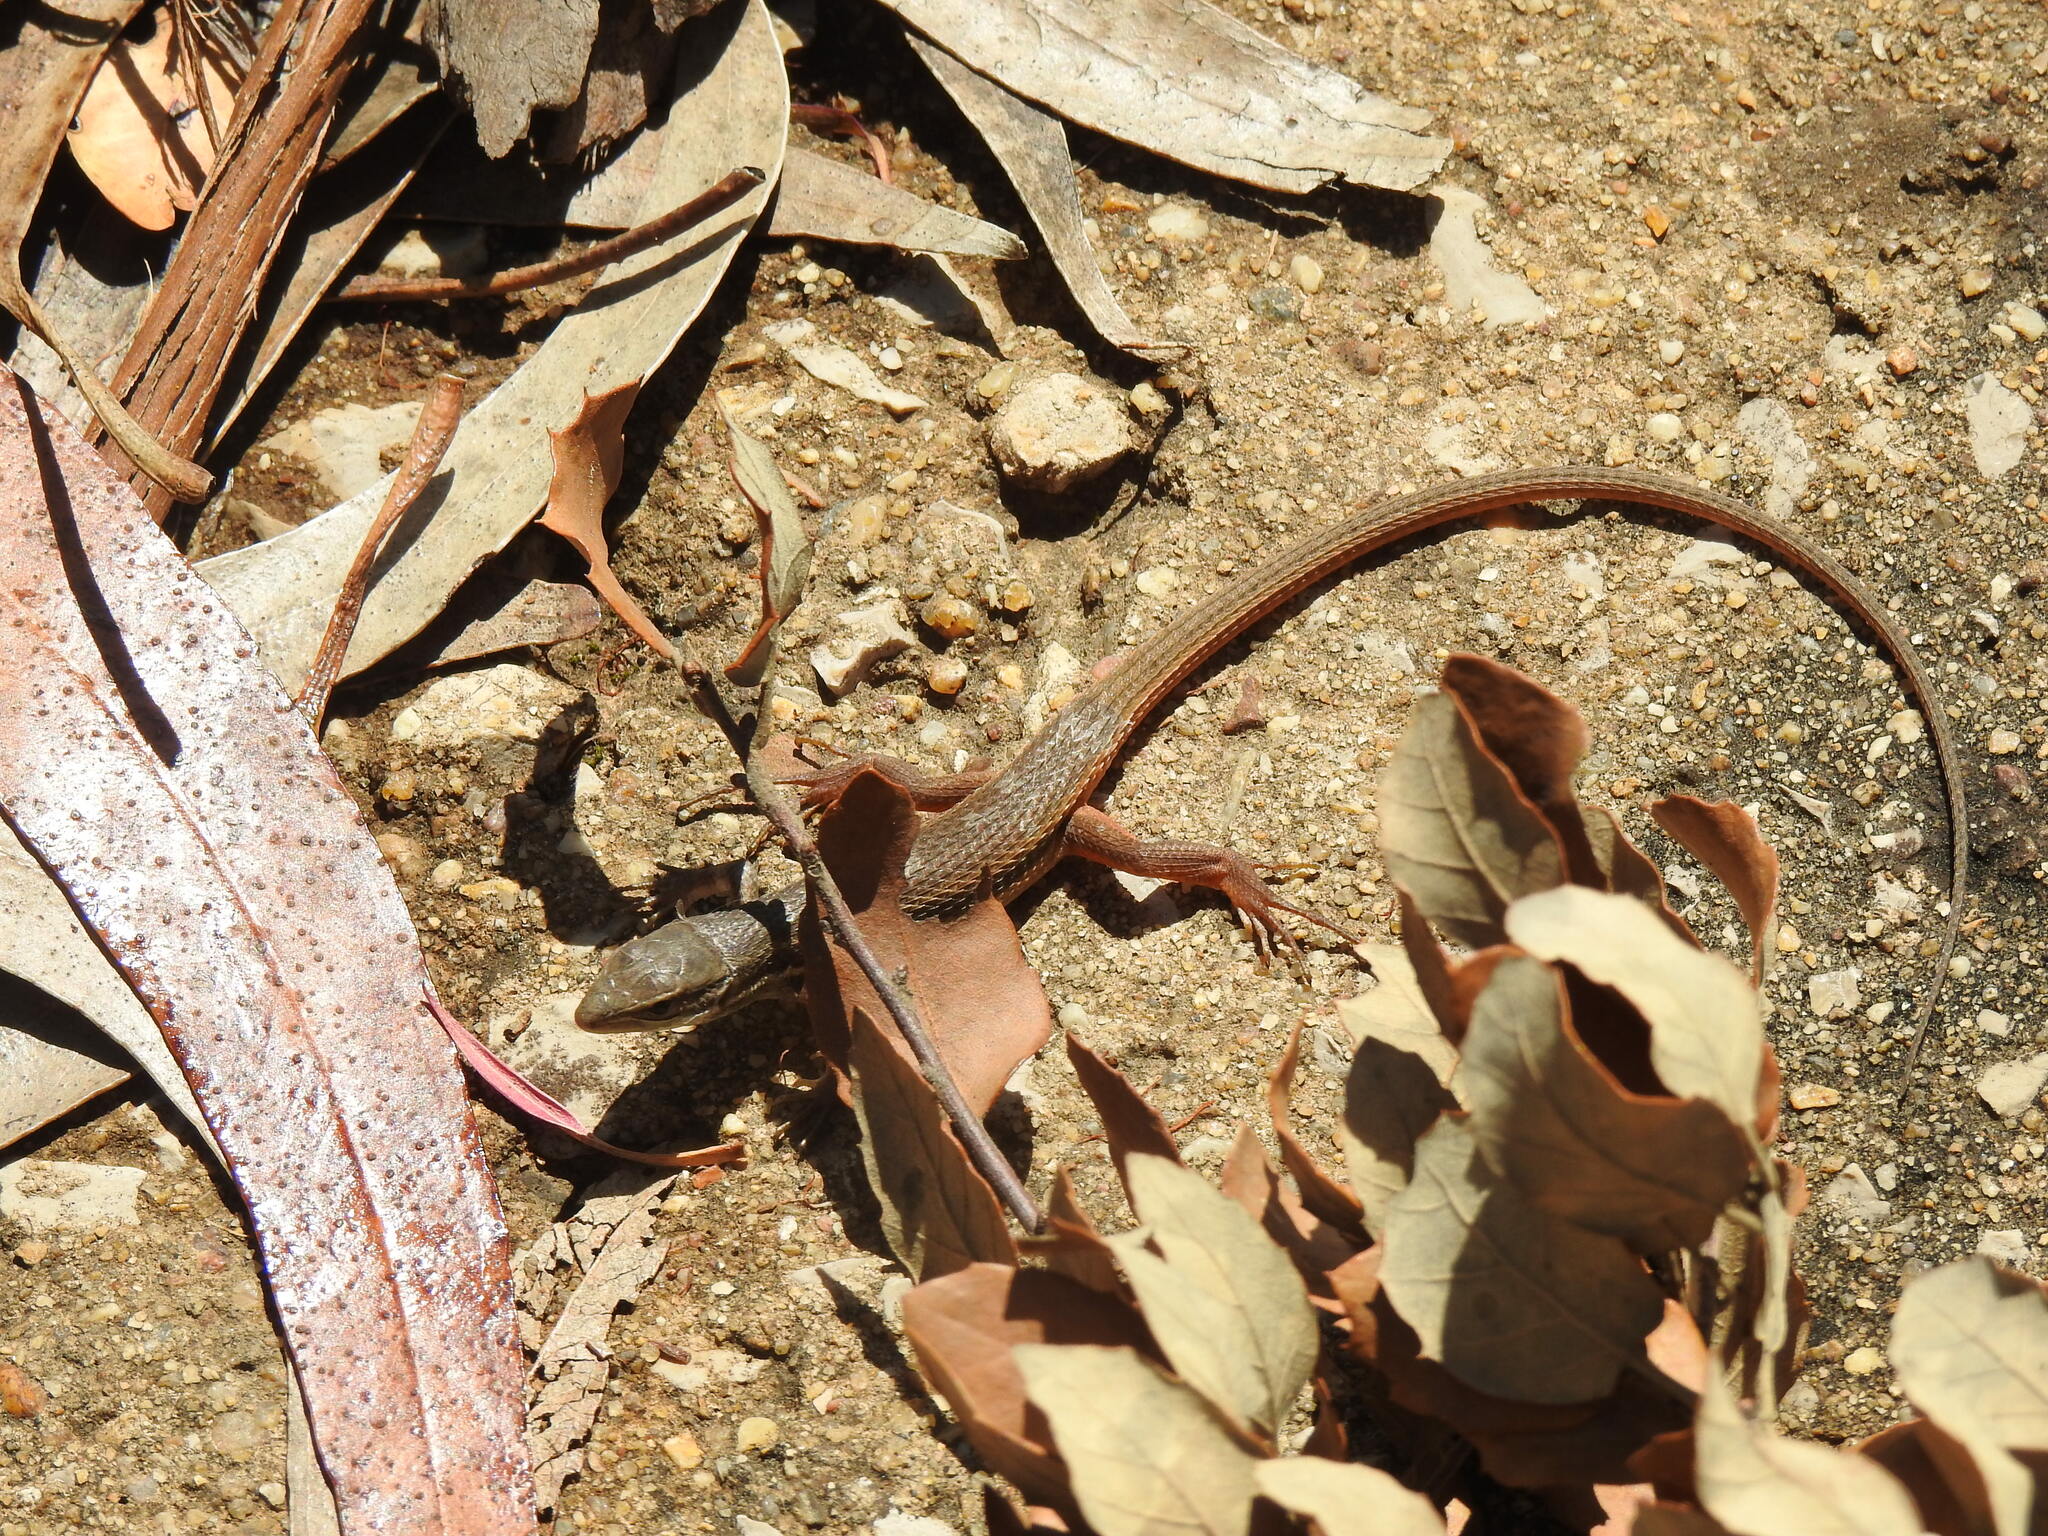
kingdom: Animalia
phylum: Chordata
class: Squamata
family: Lacertidae
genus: Psammodromus
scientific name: Psammodromus algirus
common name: Algerian psammodromus
